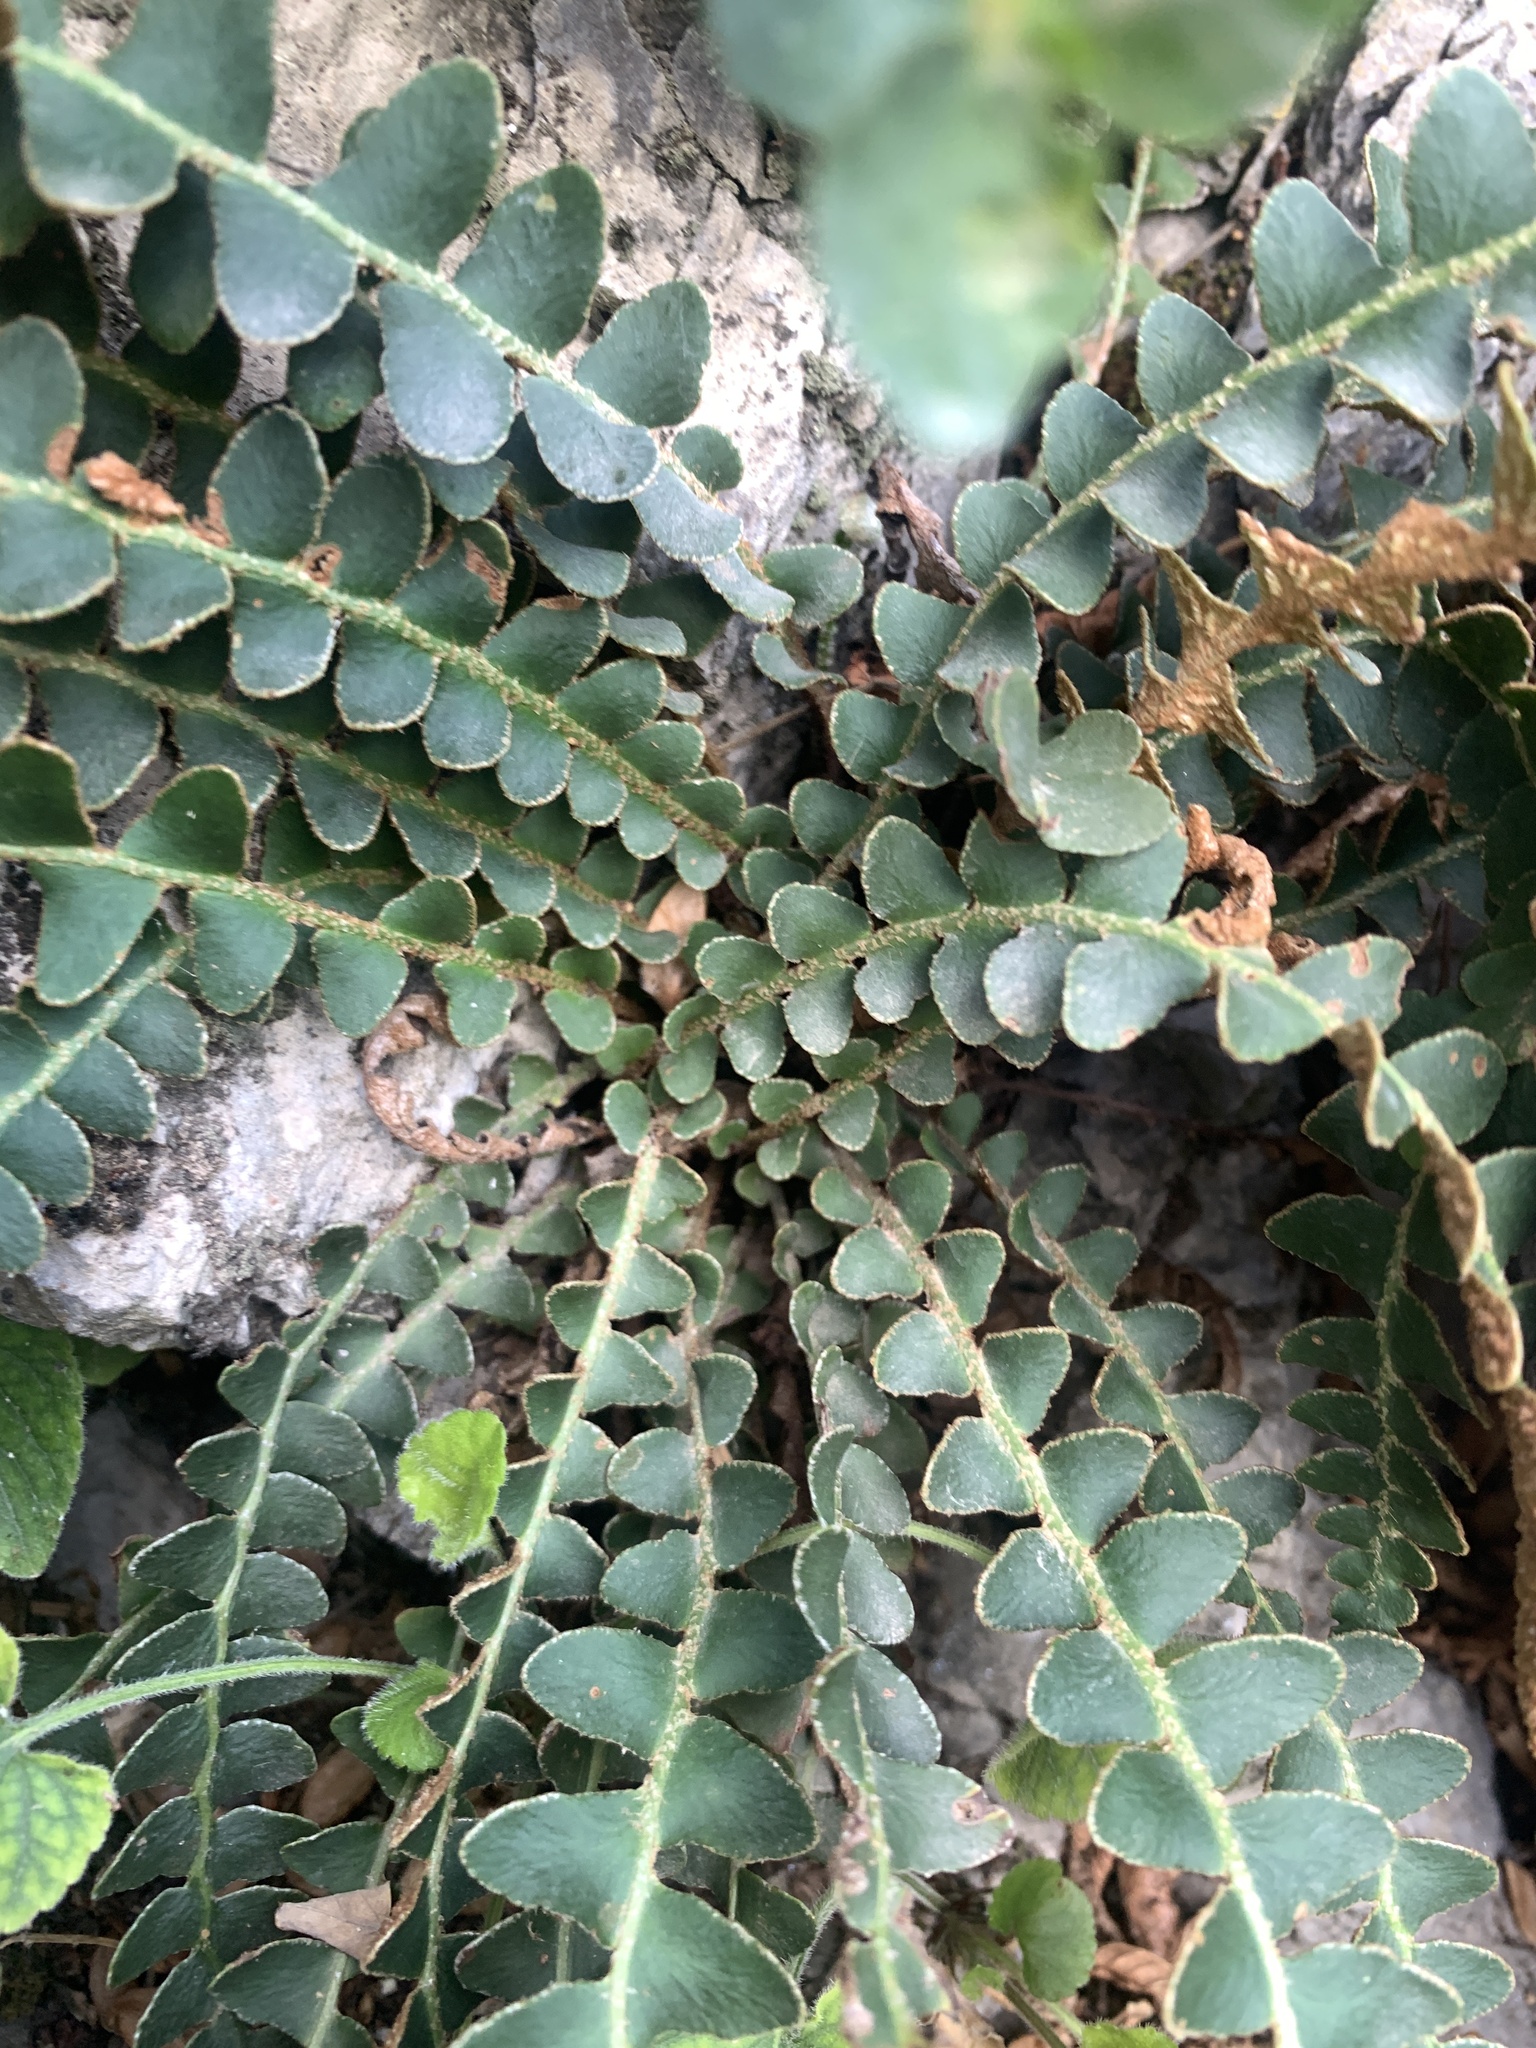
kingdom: Plantae
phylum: Tracheophyta
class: Polypodiopsida
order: Polypodiales
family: Aspleniaceae
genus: Asplenium
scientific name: Asplenium ceterach
